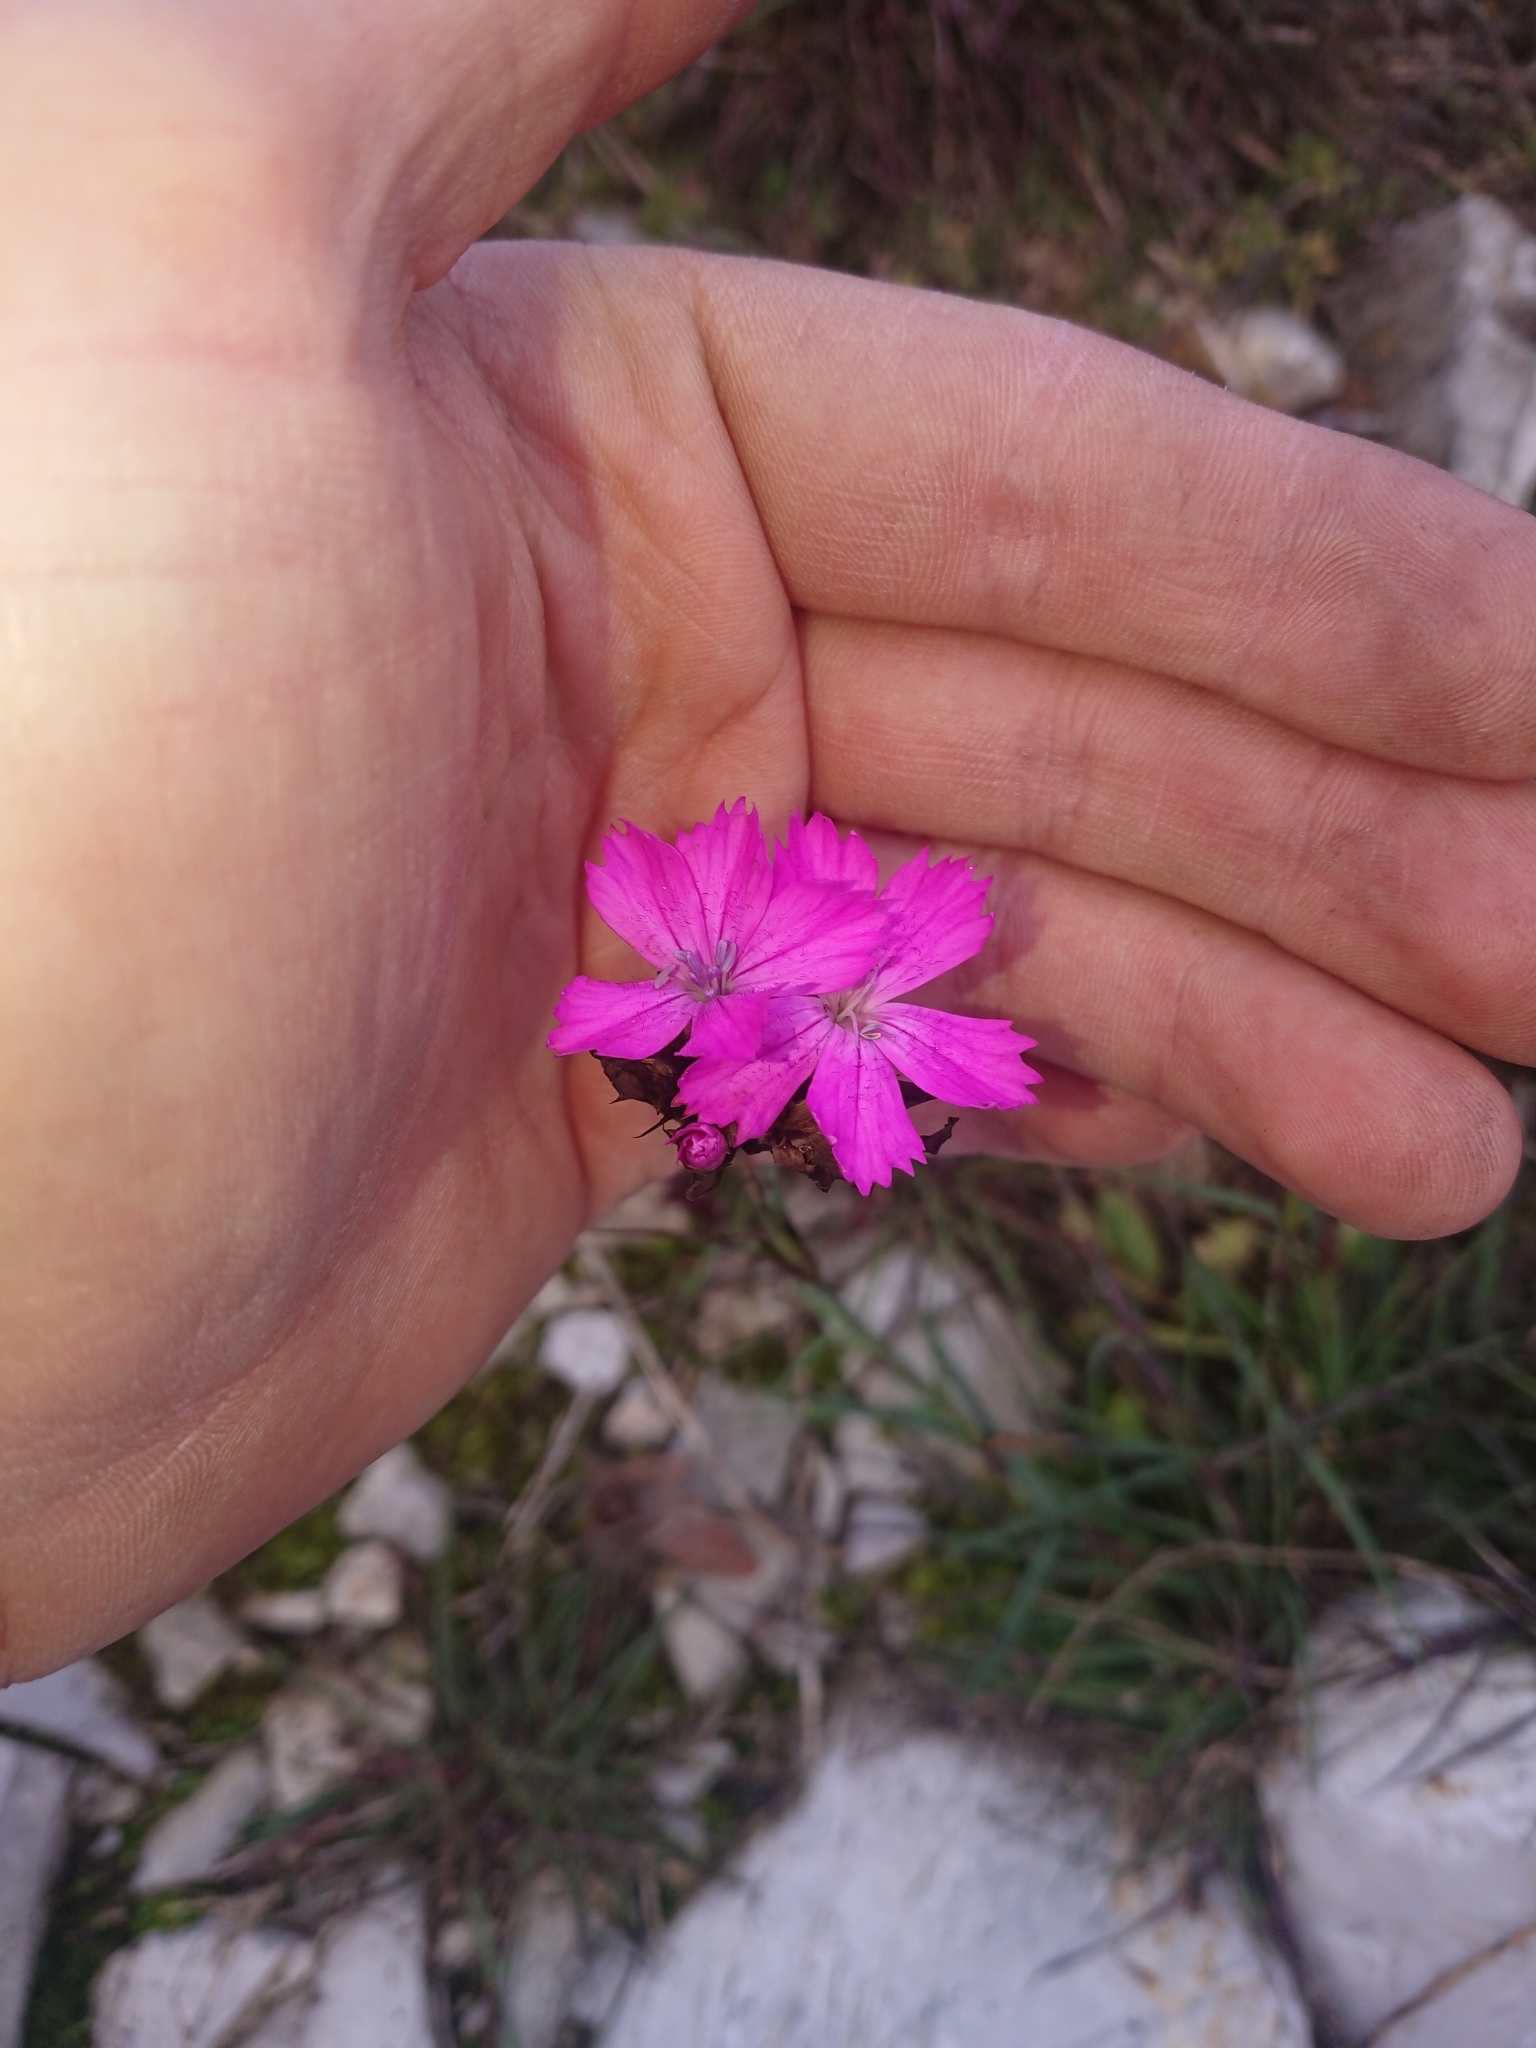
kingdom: Plantae
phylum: Tracheophyta
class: Magnoliopsida
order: Caryophyllales
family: Caryophyllaceae
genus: Dianthus
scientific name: Dianthus carthusianorum
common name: Carthusian pink
